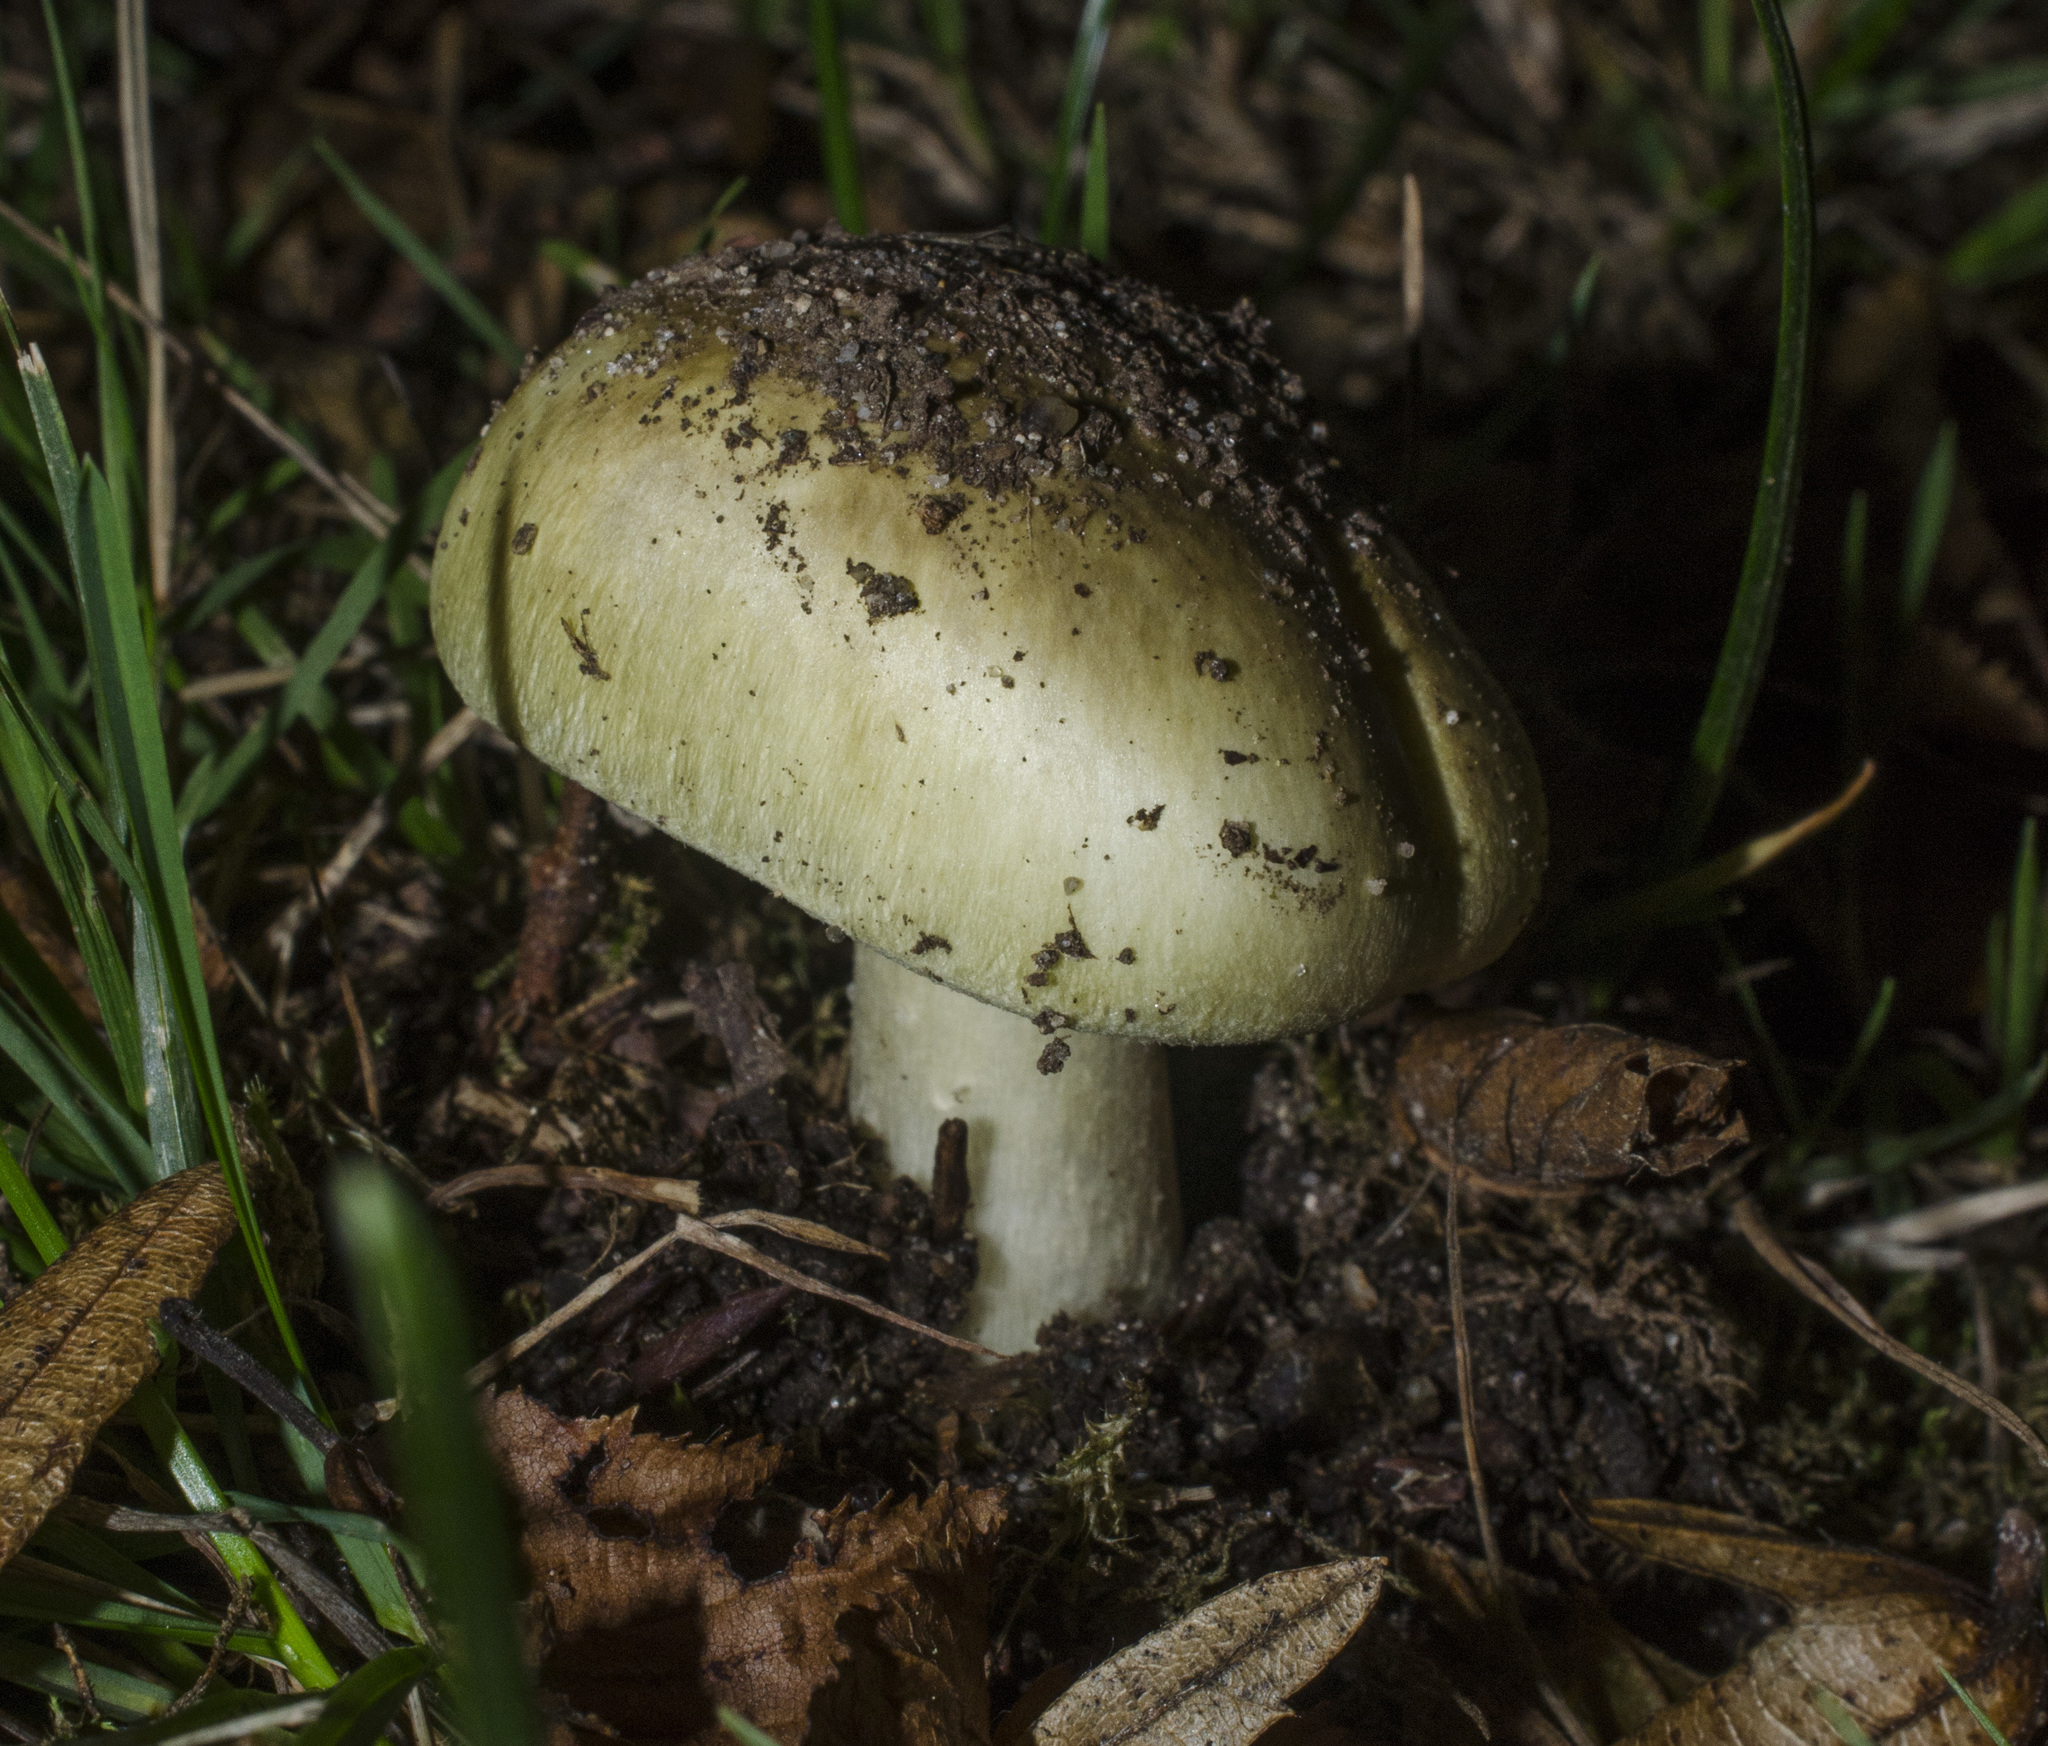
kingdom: Fungi
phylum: Basidiomycota
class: Agaricomycetes
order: Agaricales
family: Amanitaceae
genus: Amanita
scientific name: Amanita phalloides
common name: Death cap
